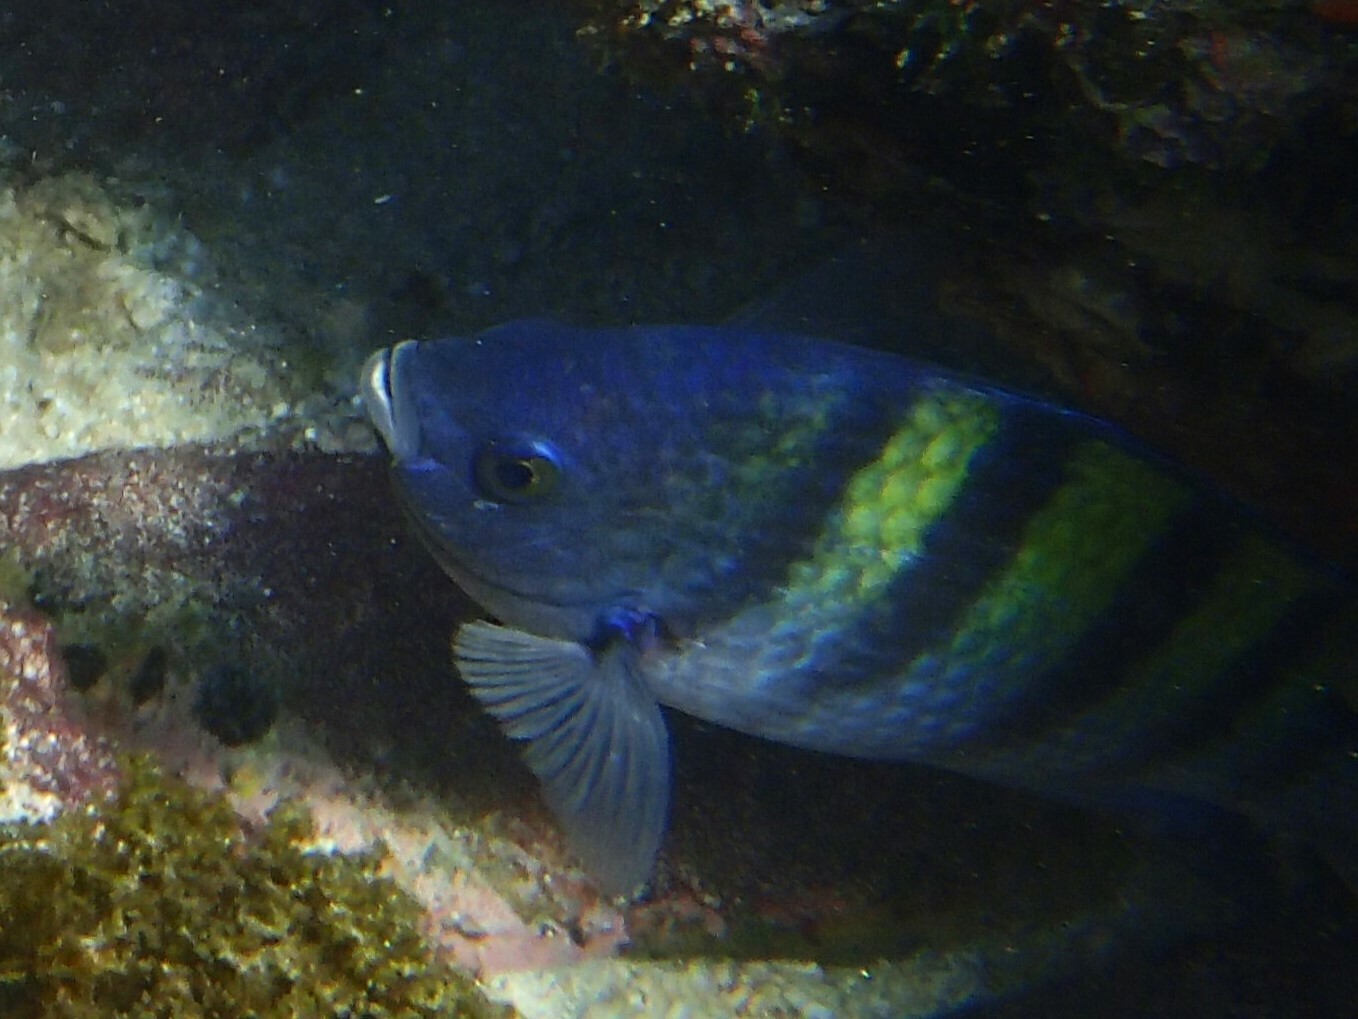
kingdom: Animalia
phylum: Chordata
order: Perciformes
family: Pomacentridae
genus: Abudefduf
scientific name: Abudefduf troschelii
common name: Panamic sergeant major
